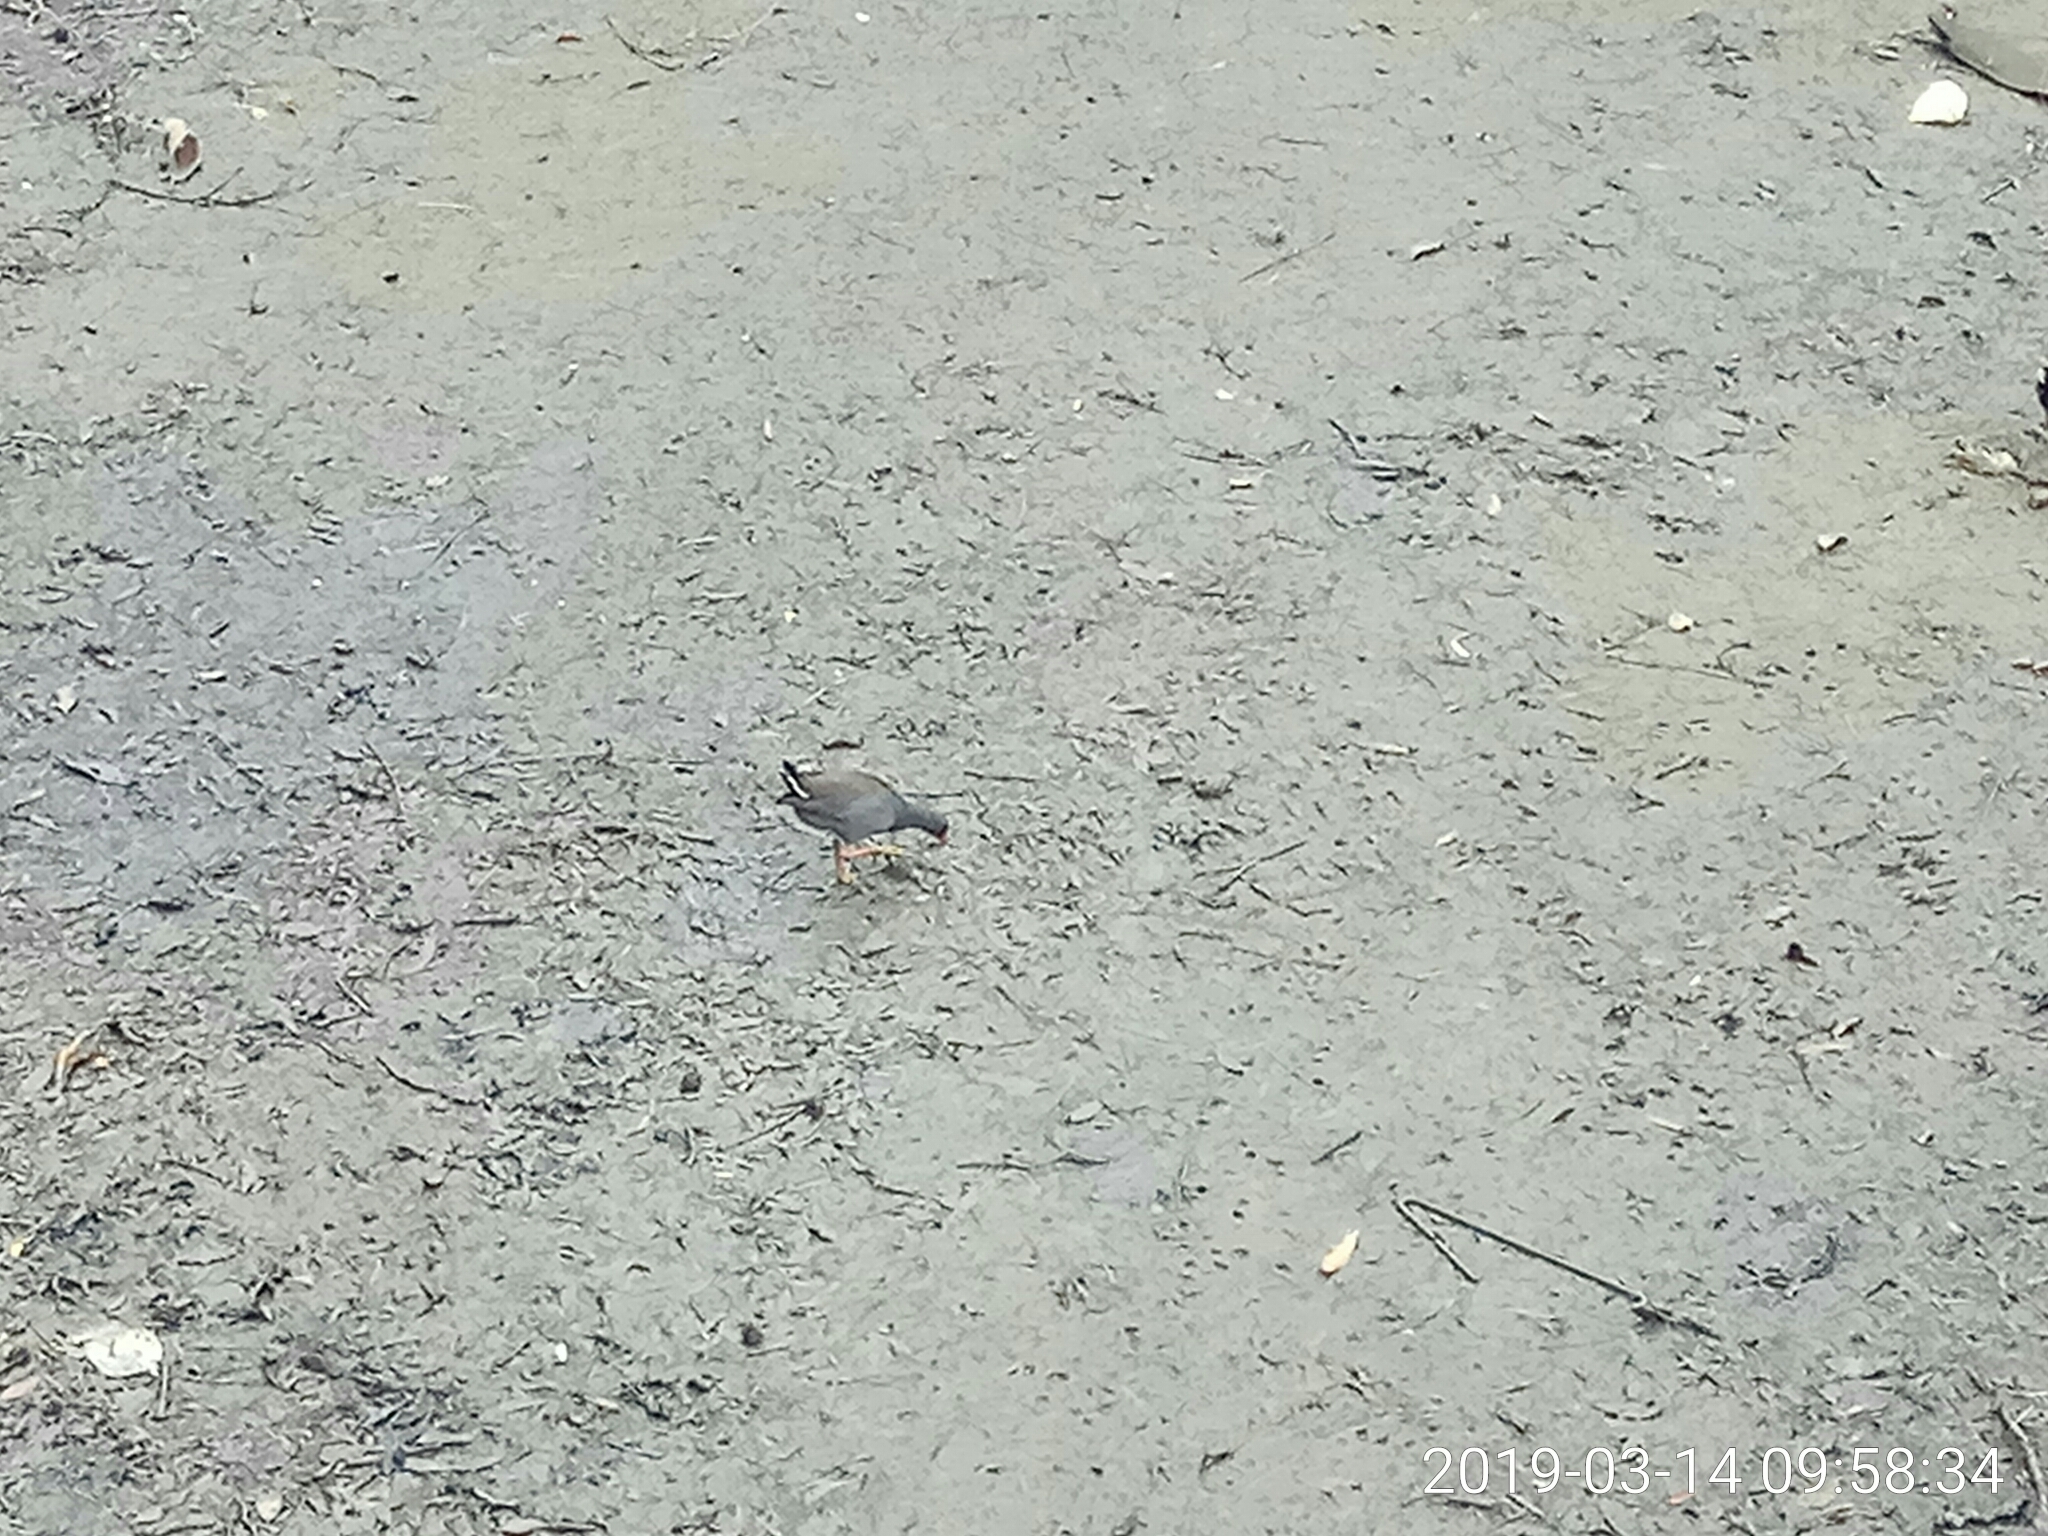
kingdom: Animalia
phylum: Chordata
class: Aves
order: Gruiformes
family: Rallidae
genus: Gallinula
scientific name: Gallinula tenebrosa
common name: Dusky moorhen
